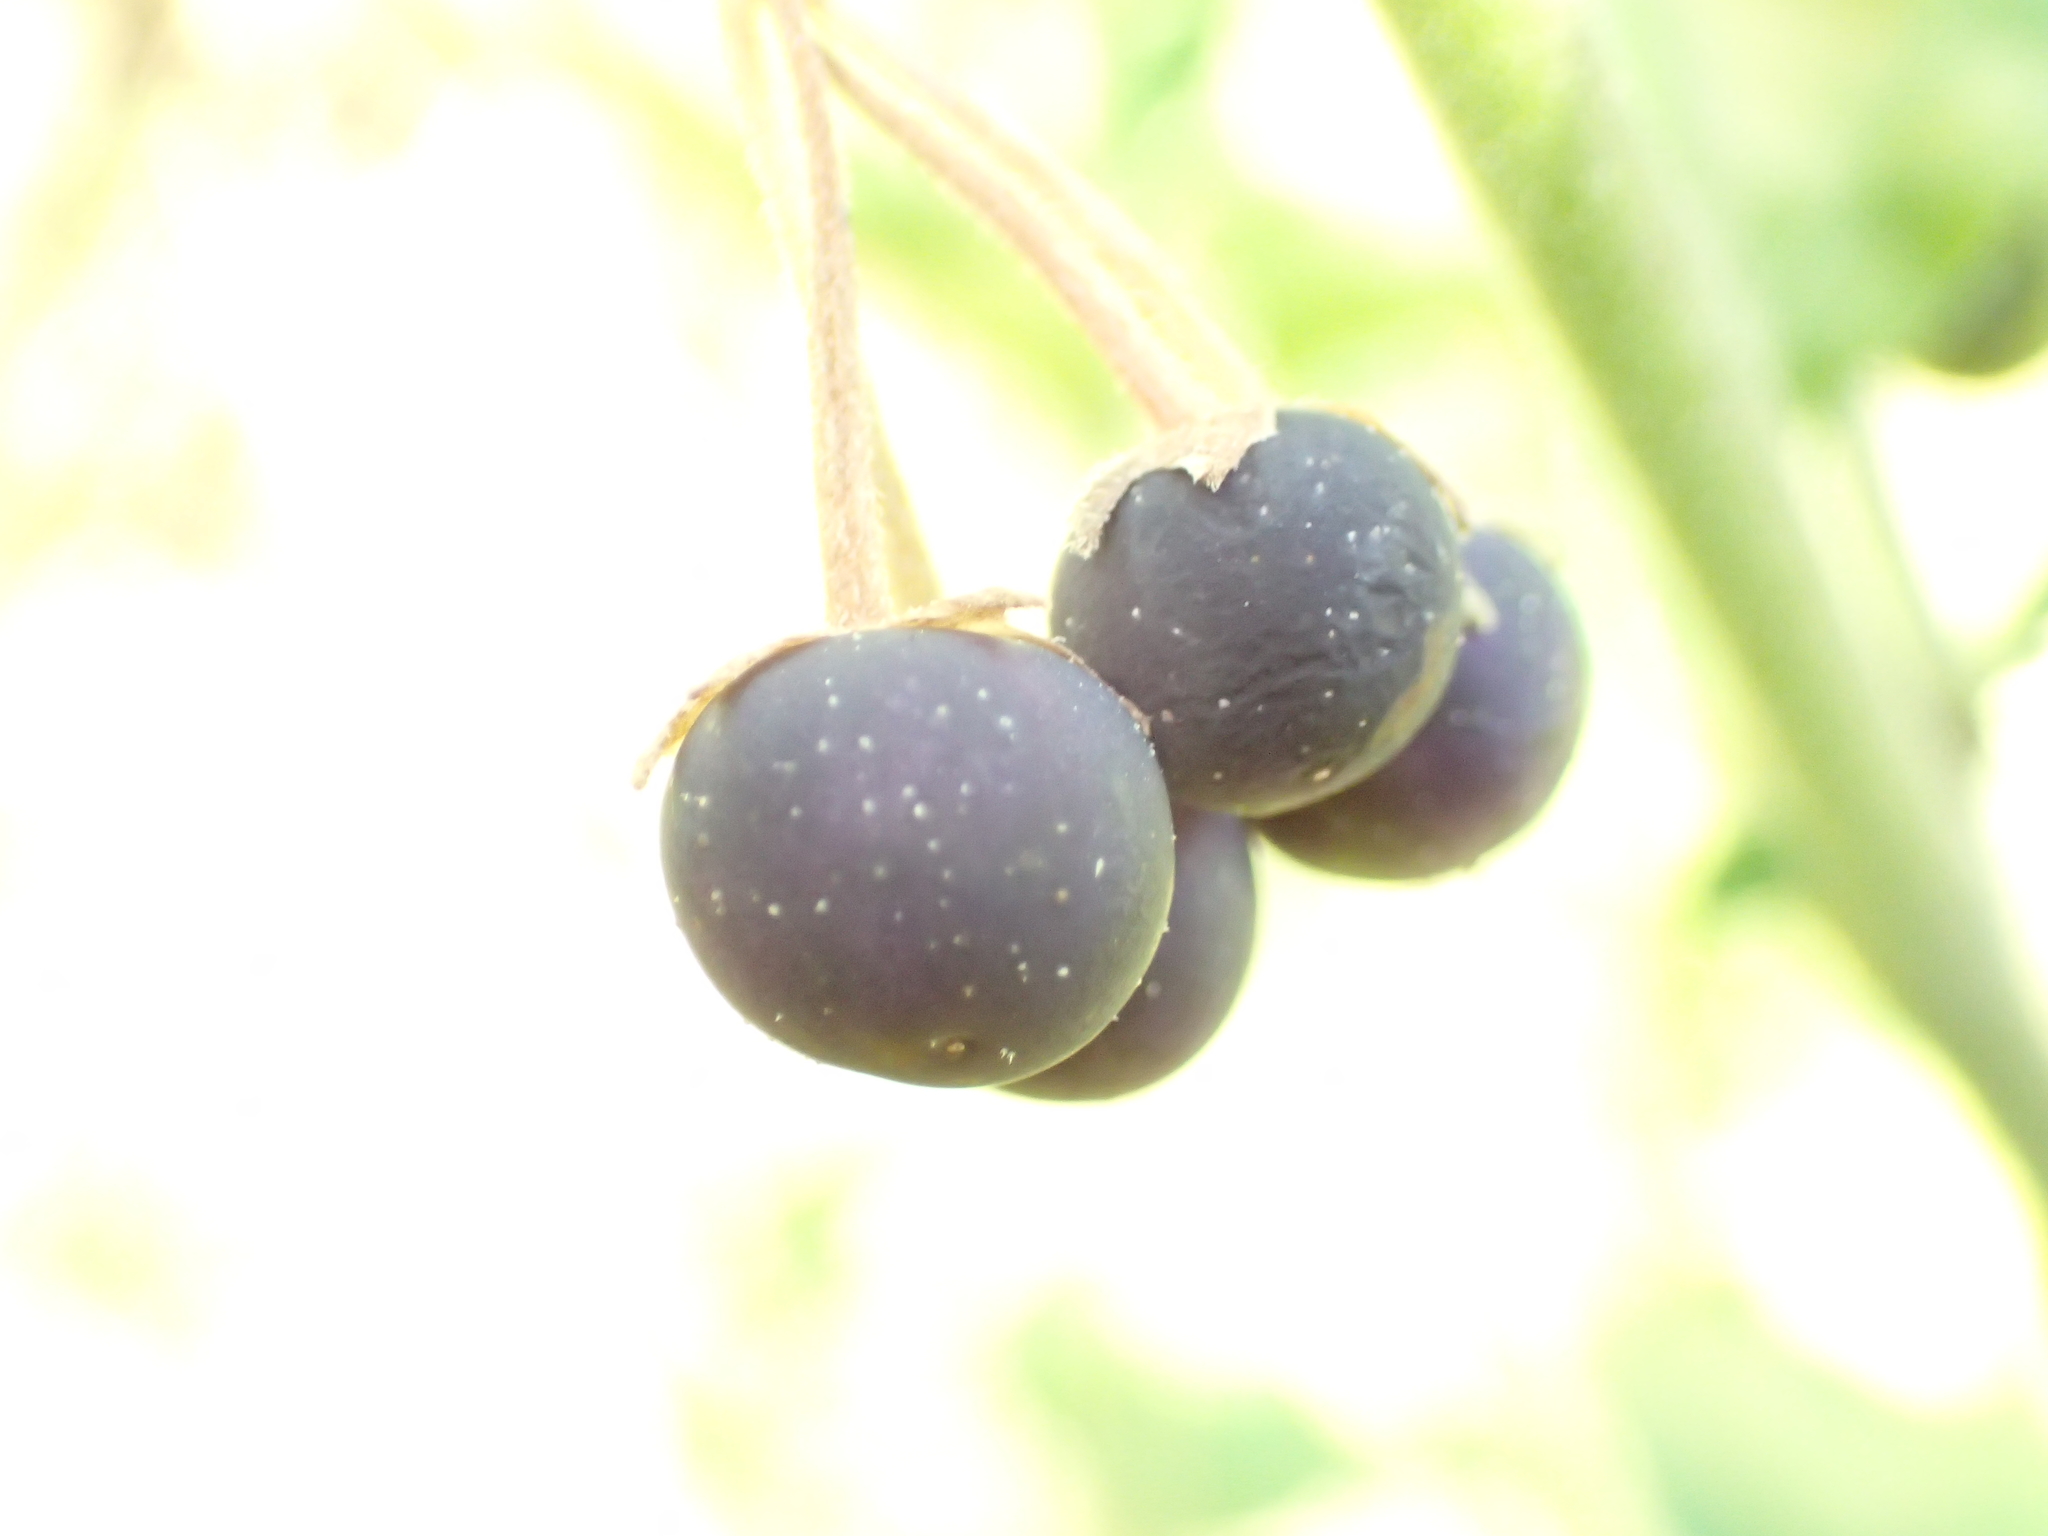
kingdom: Plantae
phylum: Tracheophyta
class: Magnoliopsida
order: Solanales
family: Solanaceae
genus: Solanum
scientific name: Solanum chenopodioides
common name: Tall nightshade
